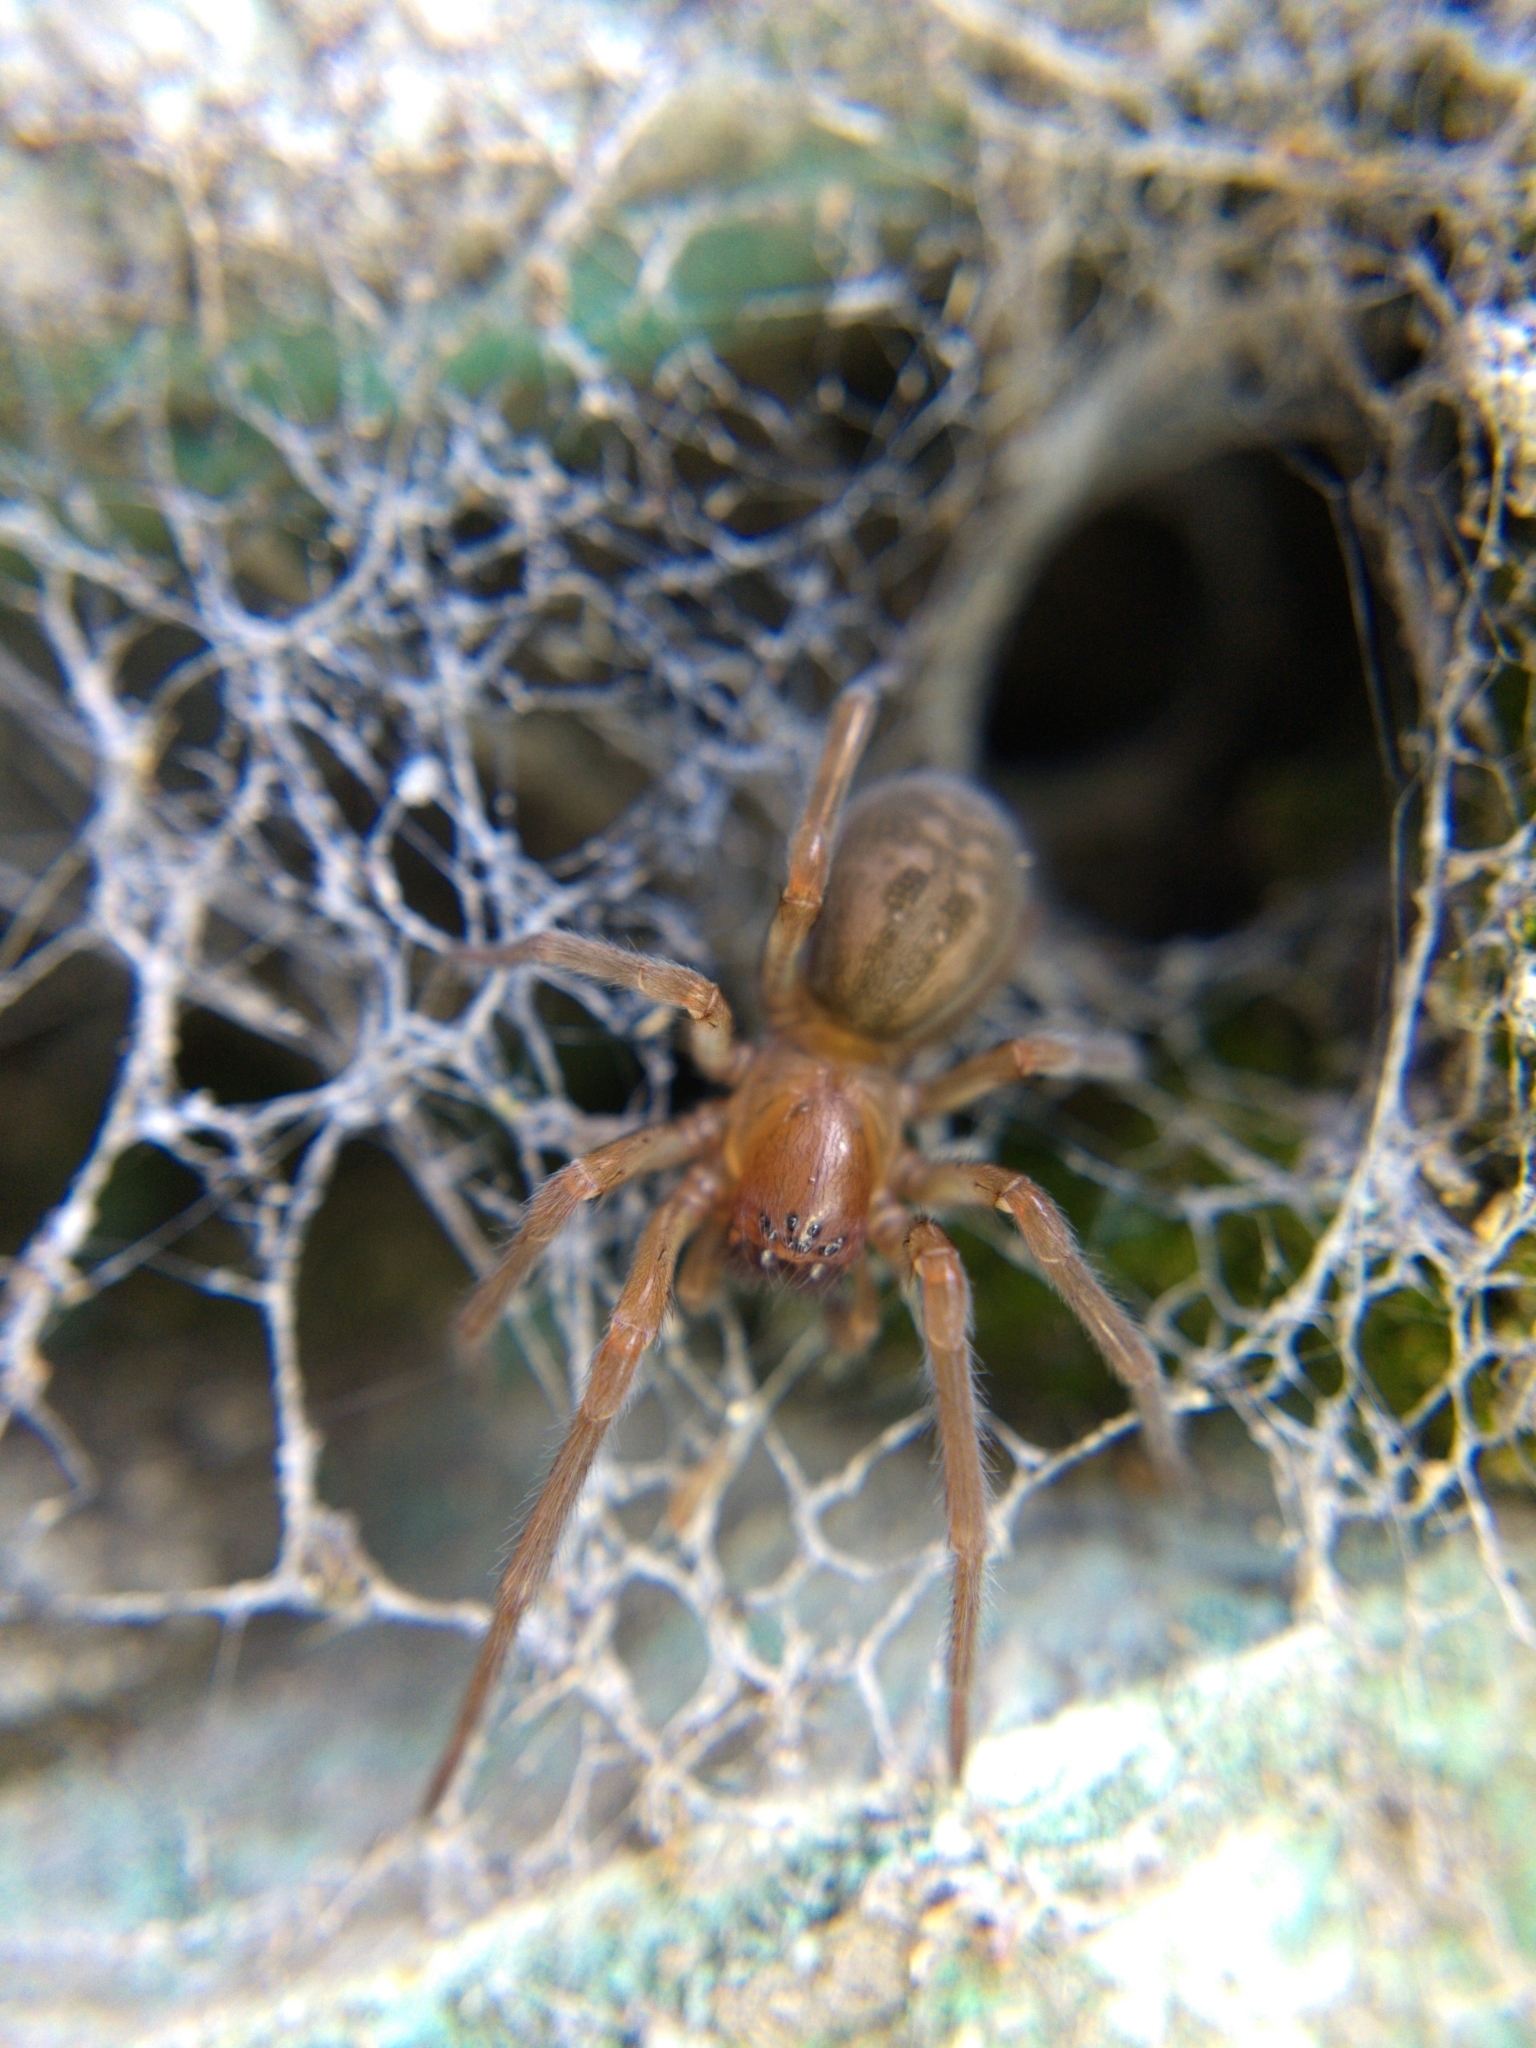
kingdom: Animalia
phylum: Arthropoda
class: Arachnida
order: Araneae
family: Amaurobiidae
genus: Amaurobius
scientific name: Amaurobius ferox
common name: Black laceweaver
